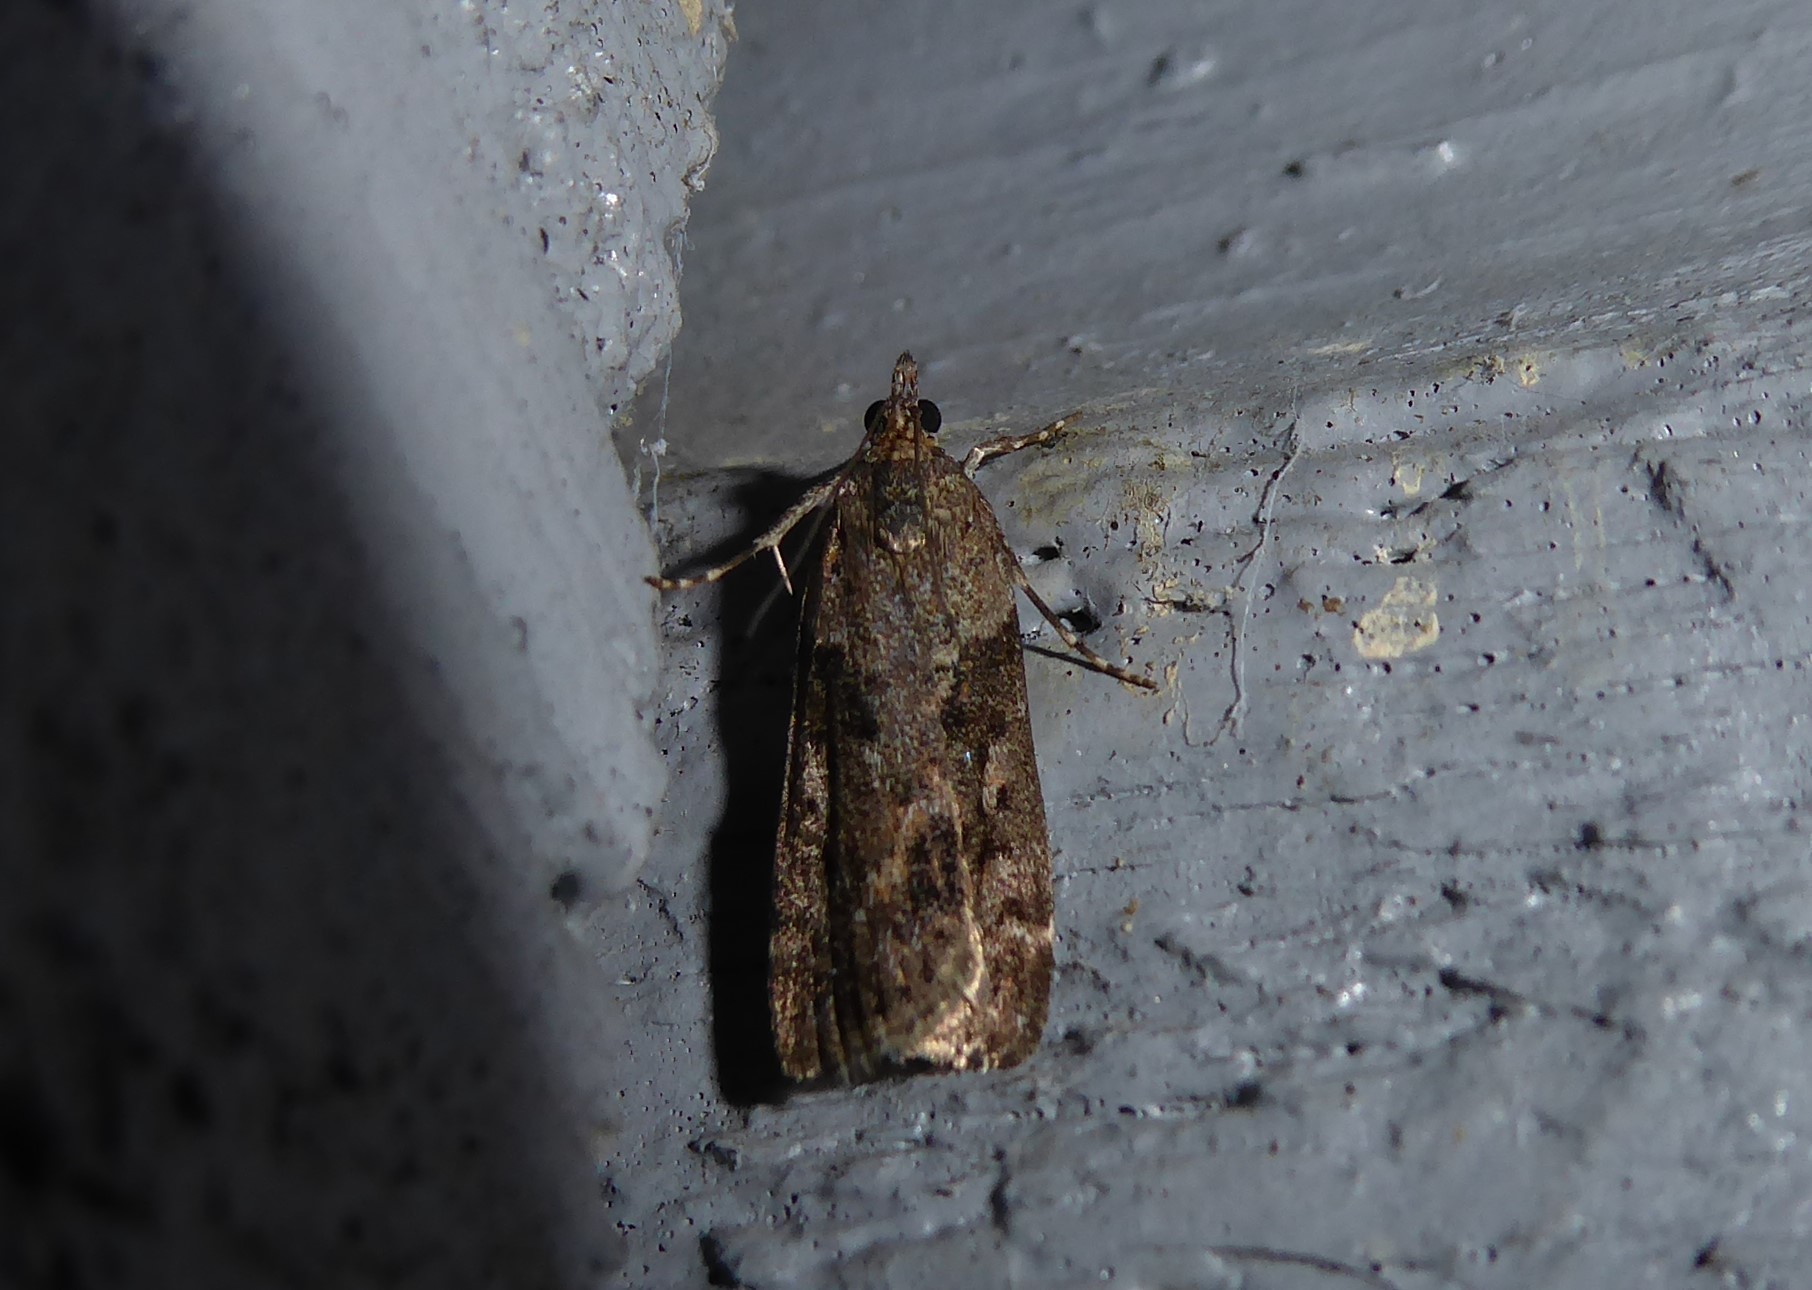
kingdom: Animalia
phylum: Arthropoda
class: Insecta
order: Lepidoptera
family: Crambidae
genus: Eudonia
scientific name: Eudonia submarginalis
